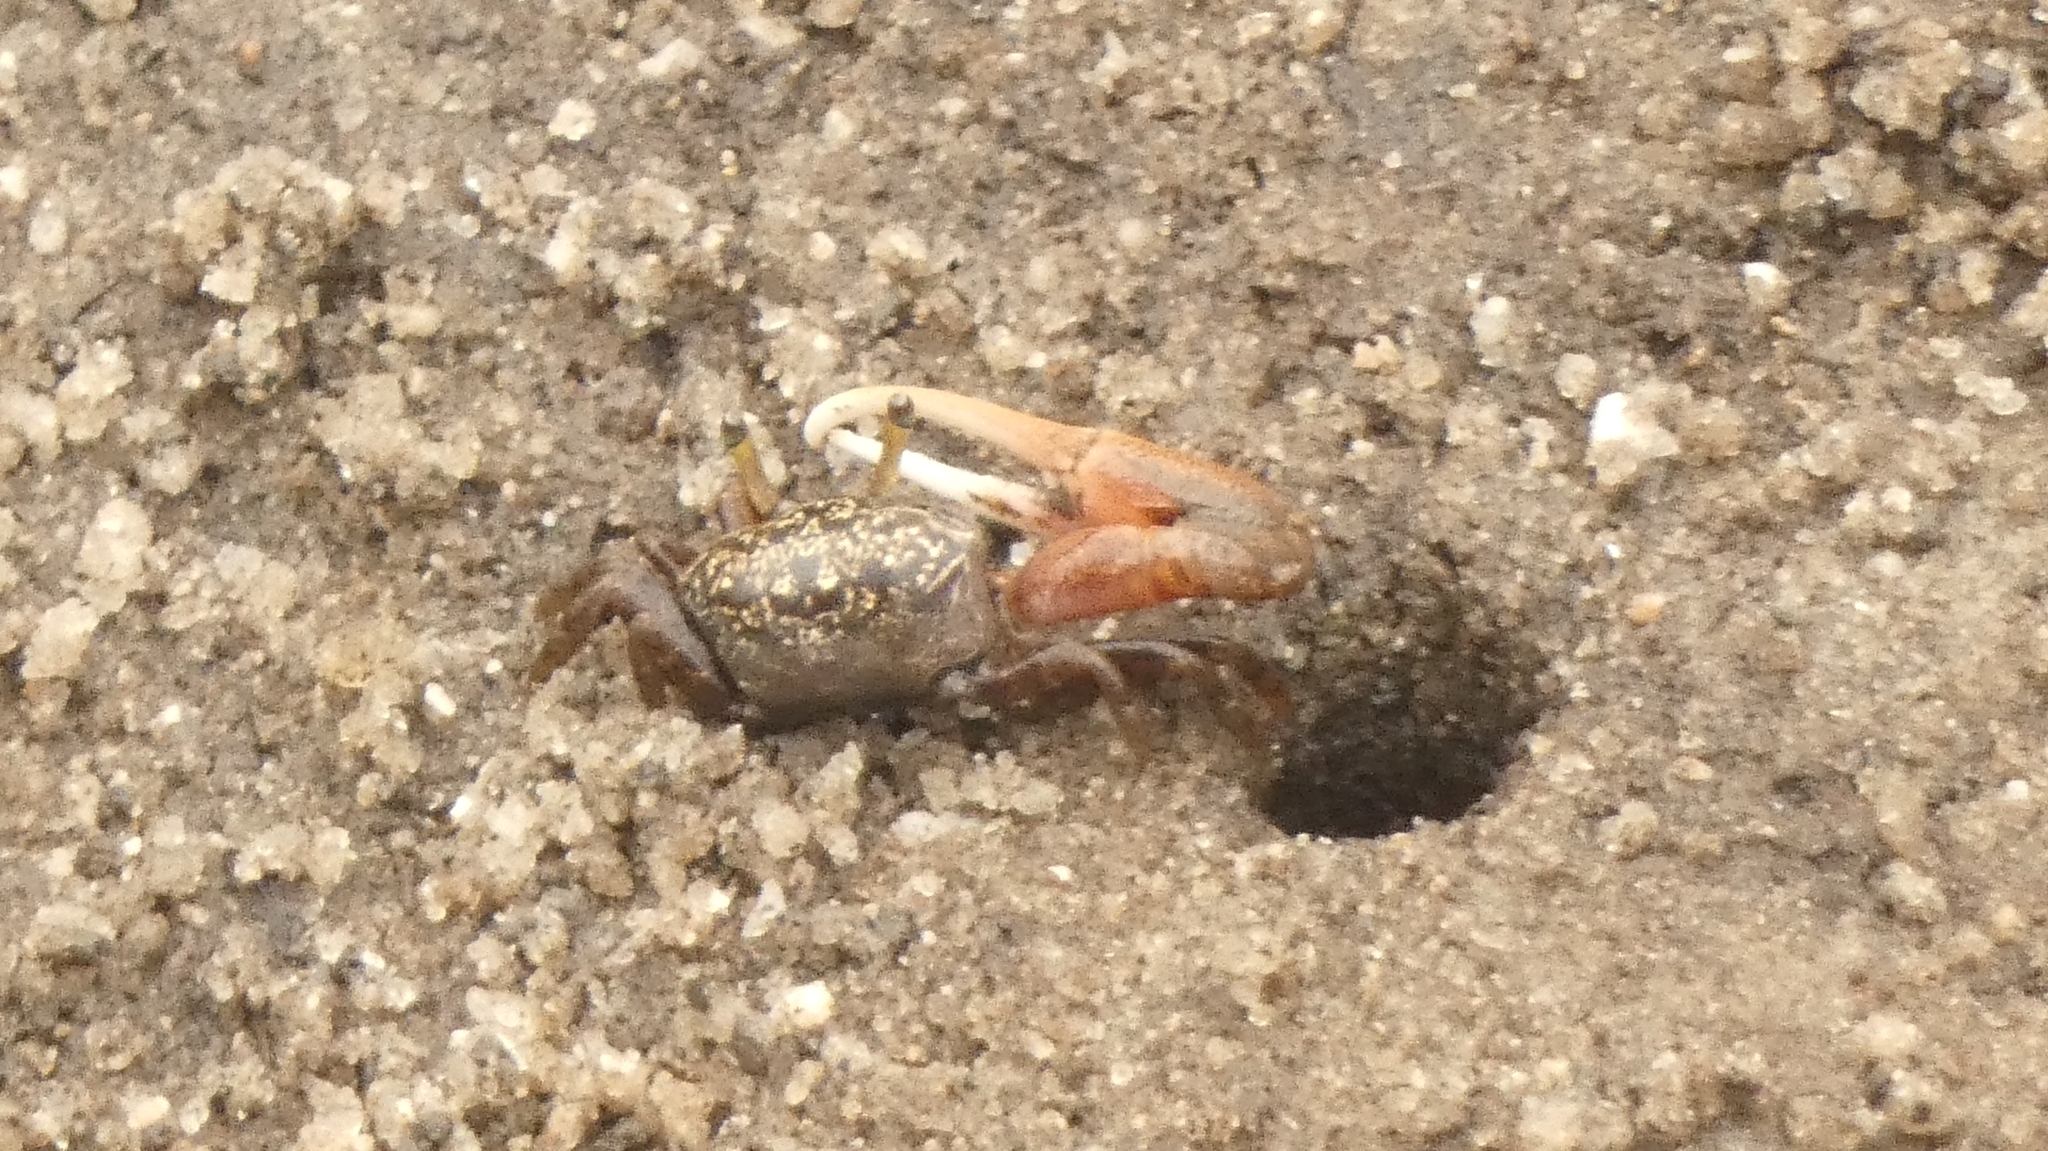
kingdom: Animalia
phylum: Arthropoda
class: Malacostraca
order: Decapoda
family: Ocypodidae
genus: Leptuca
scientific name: Leptuca uruguayensis
